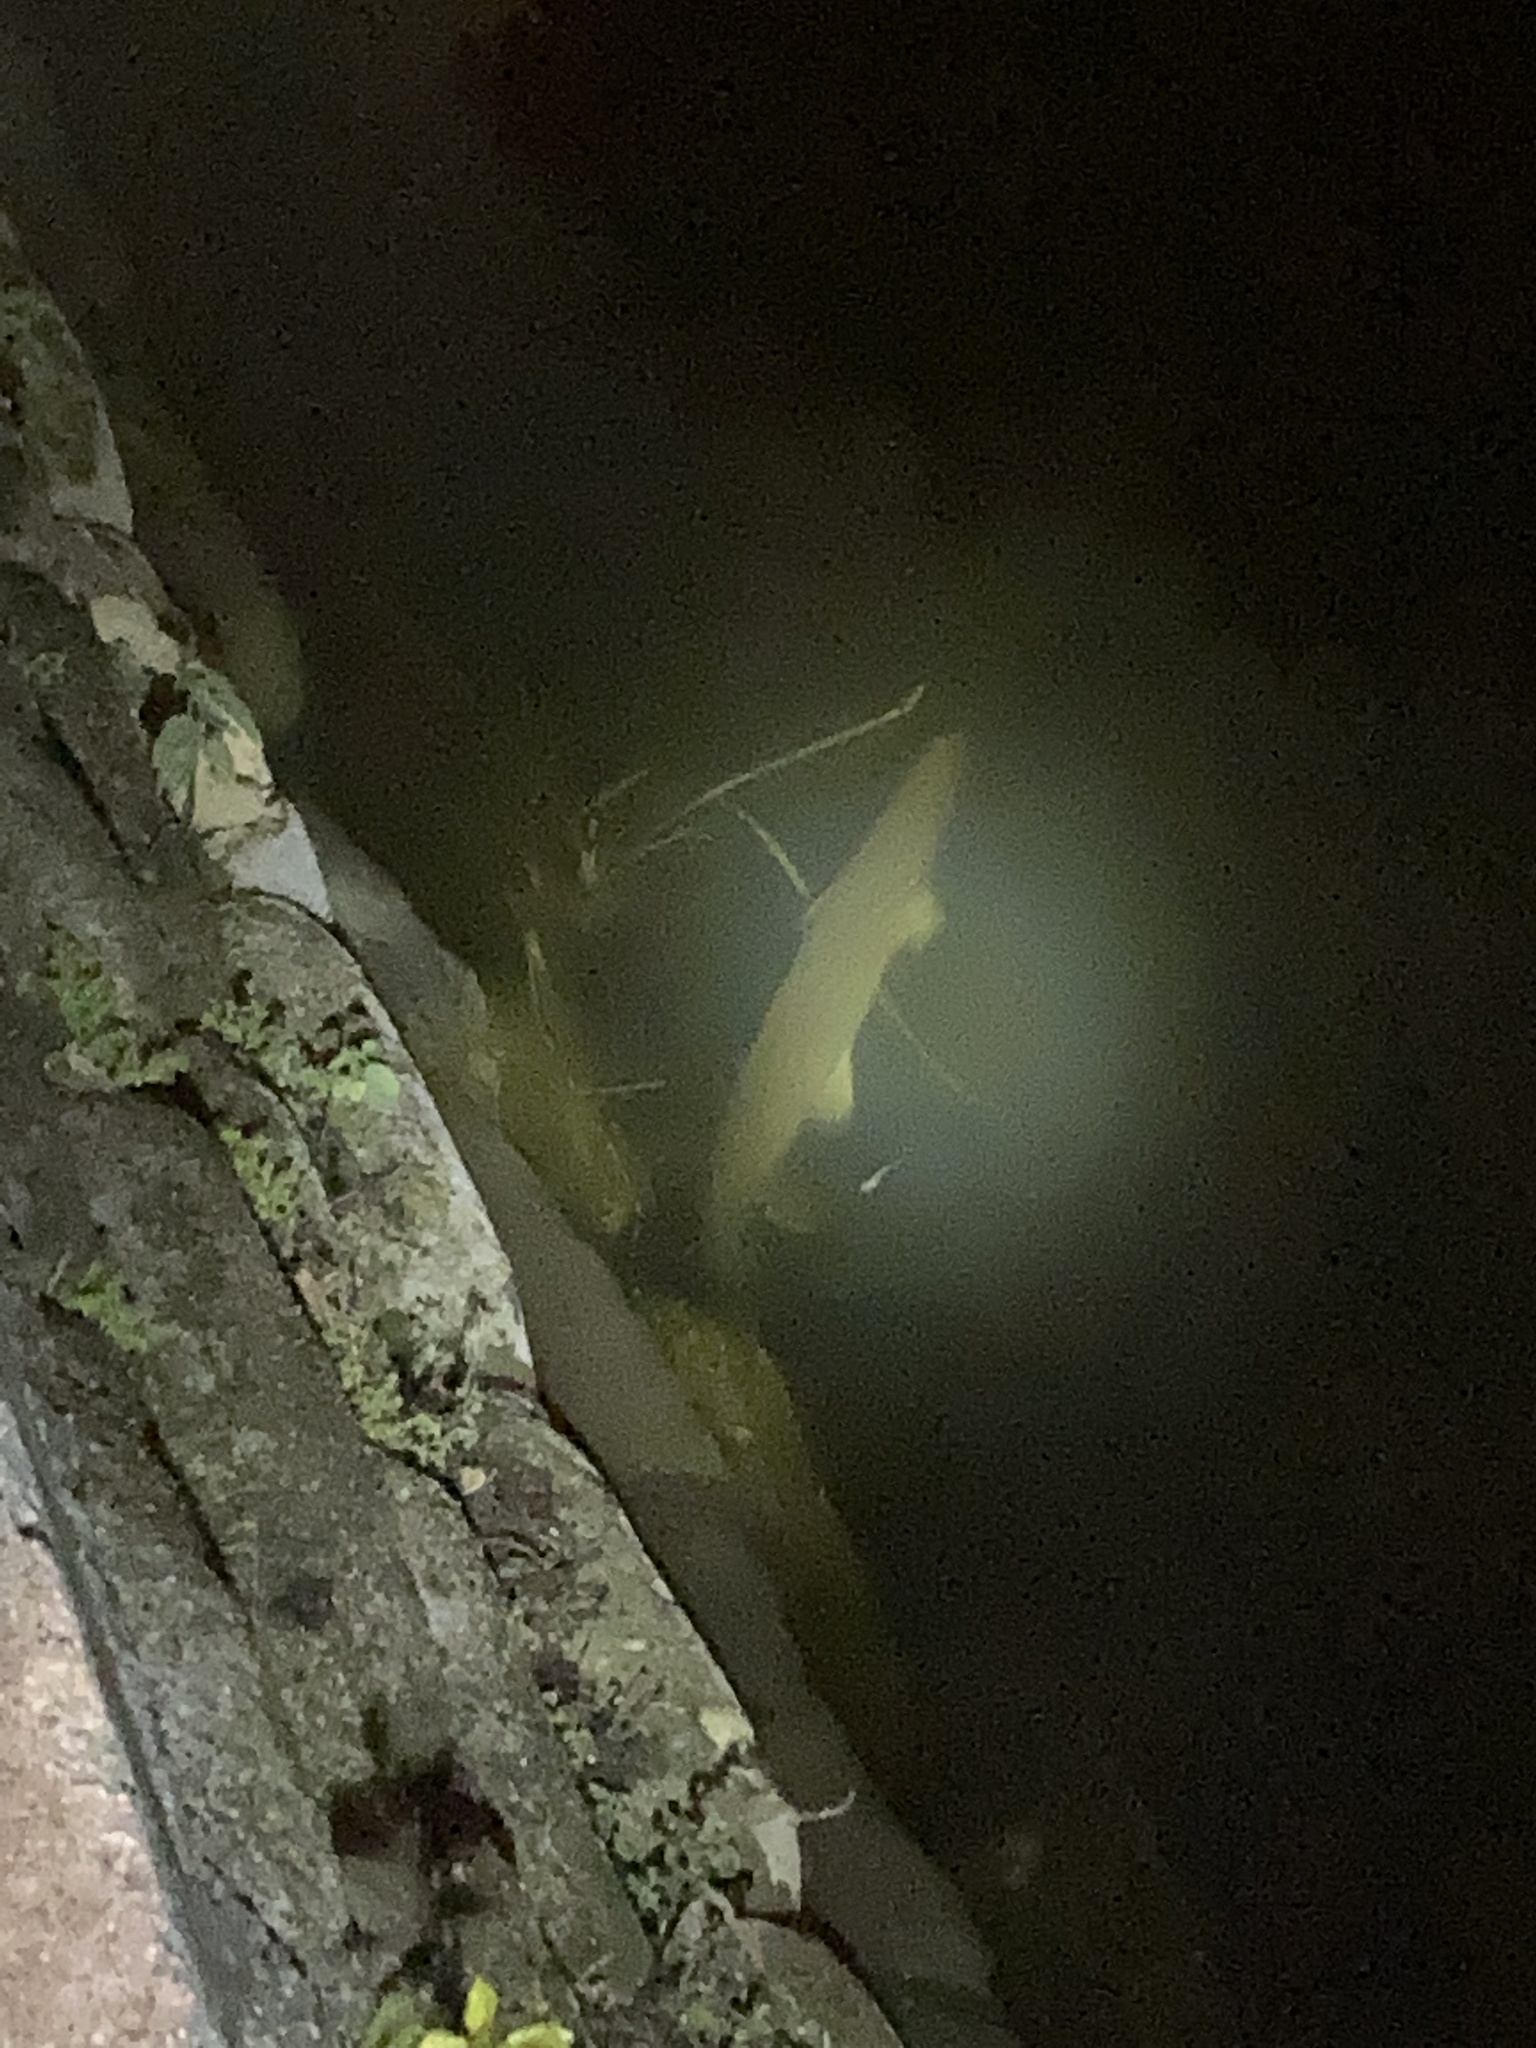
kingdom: Animalia
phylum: Chordata
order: Lepisosteiformes
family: Lepisosteidae
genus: Lepisosteus
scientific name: Lepisosteus platyrhincus
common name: Florida gar
